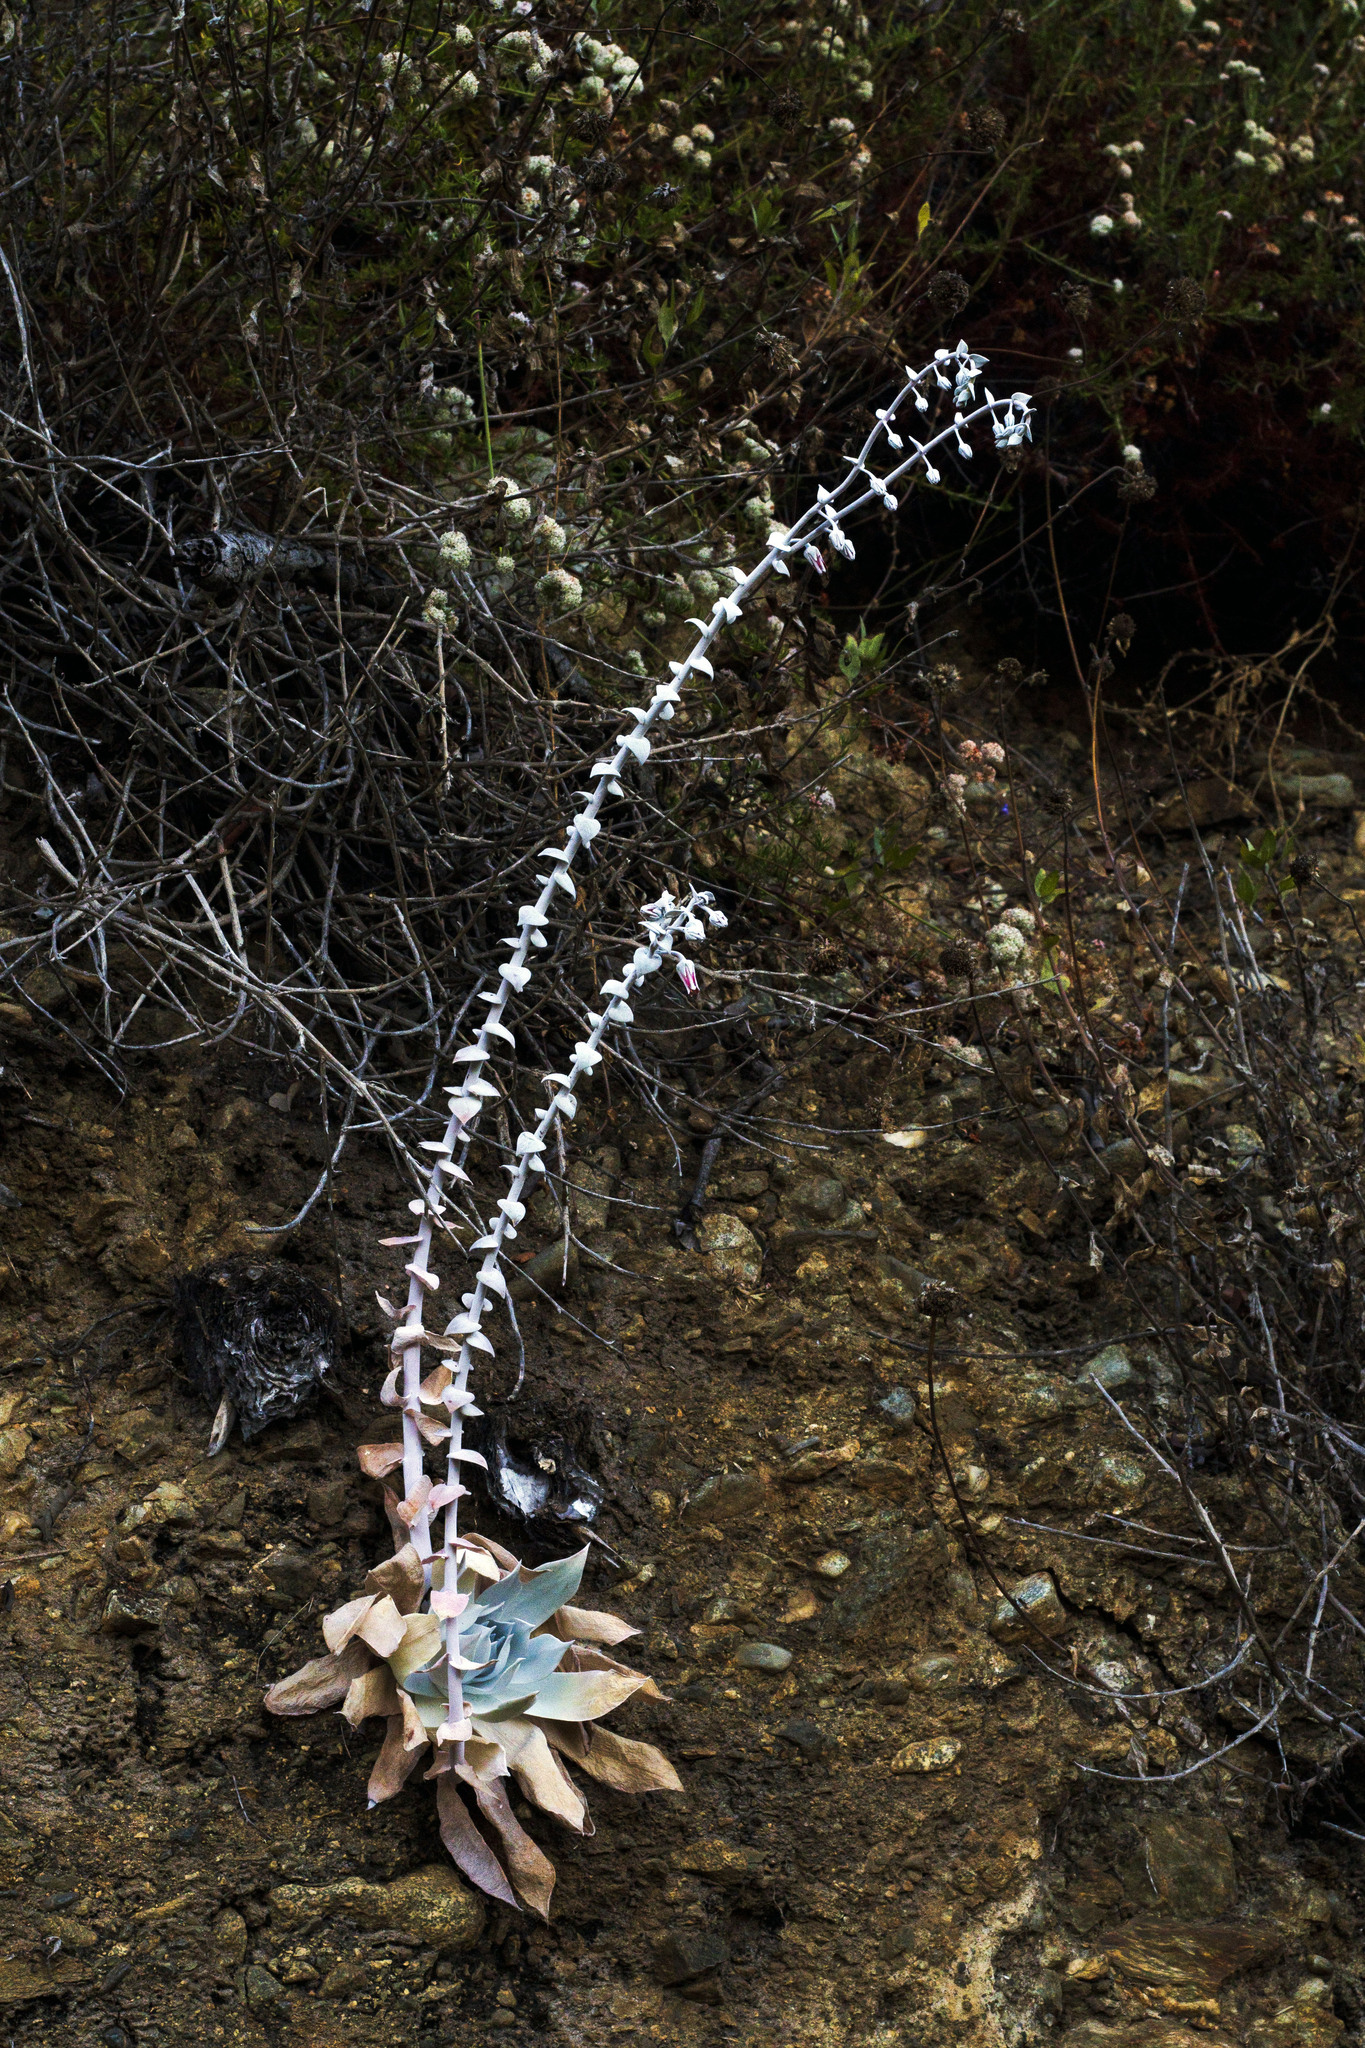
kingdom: Plantae
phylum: Tracheophyta
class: Magnoliopsida
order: Saxifragales
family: Crassulaceae
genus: Dudleya
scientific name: Dudleya pulverulenta
